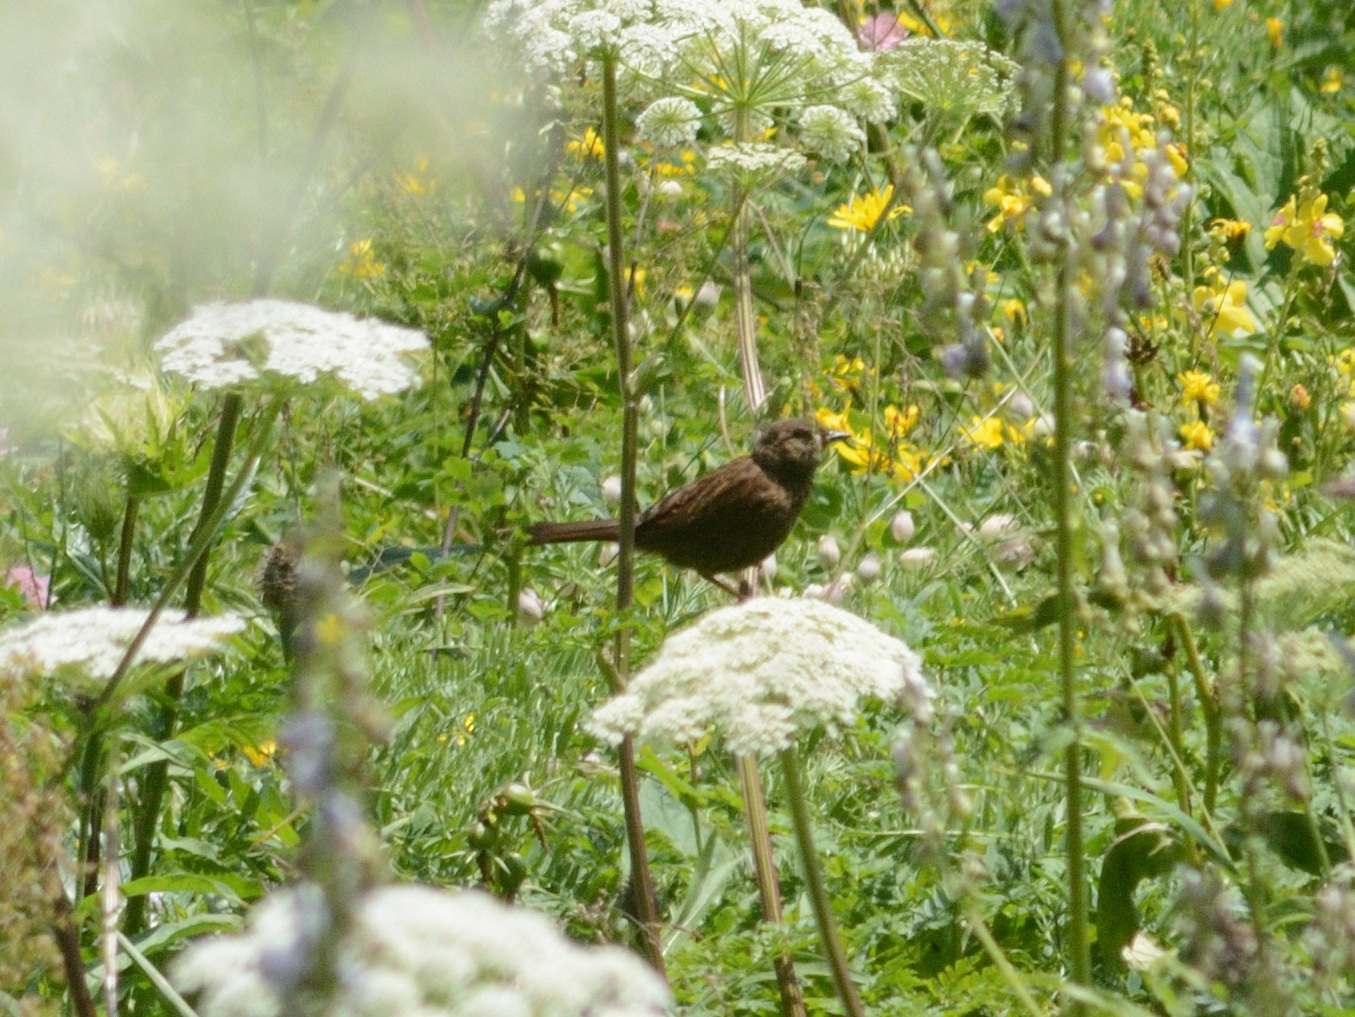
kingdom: Animalia
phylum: Chordata
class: Aves
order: Passeriformes
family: Prunellidae
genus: Prunella
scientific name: Prunella modularis
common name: Dunnock
